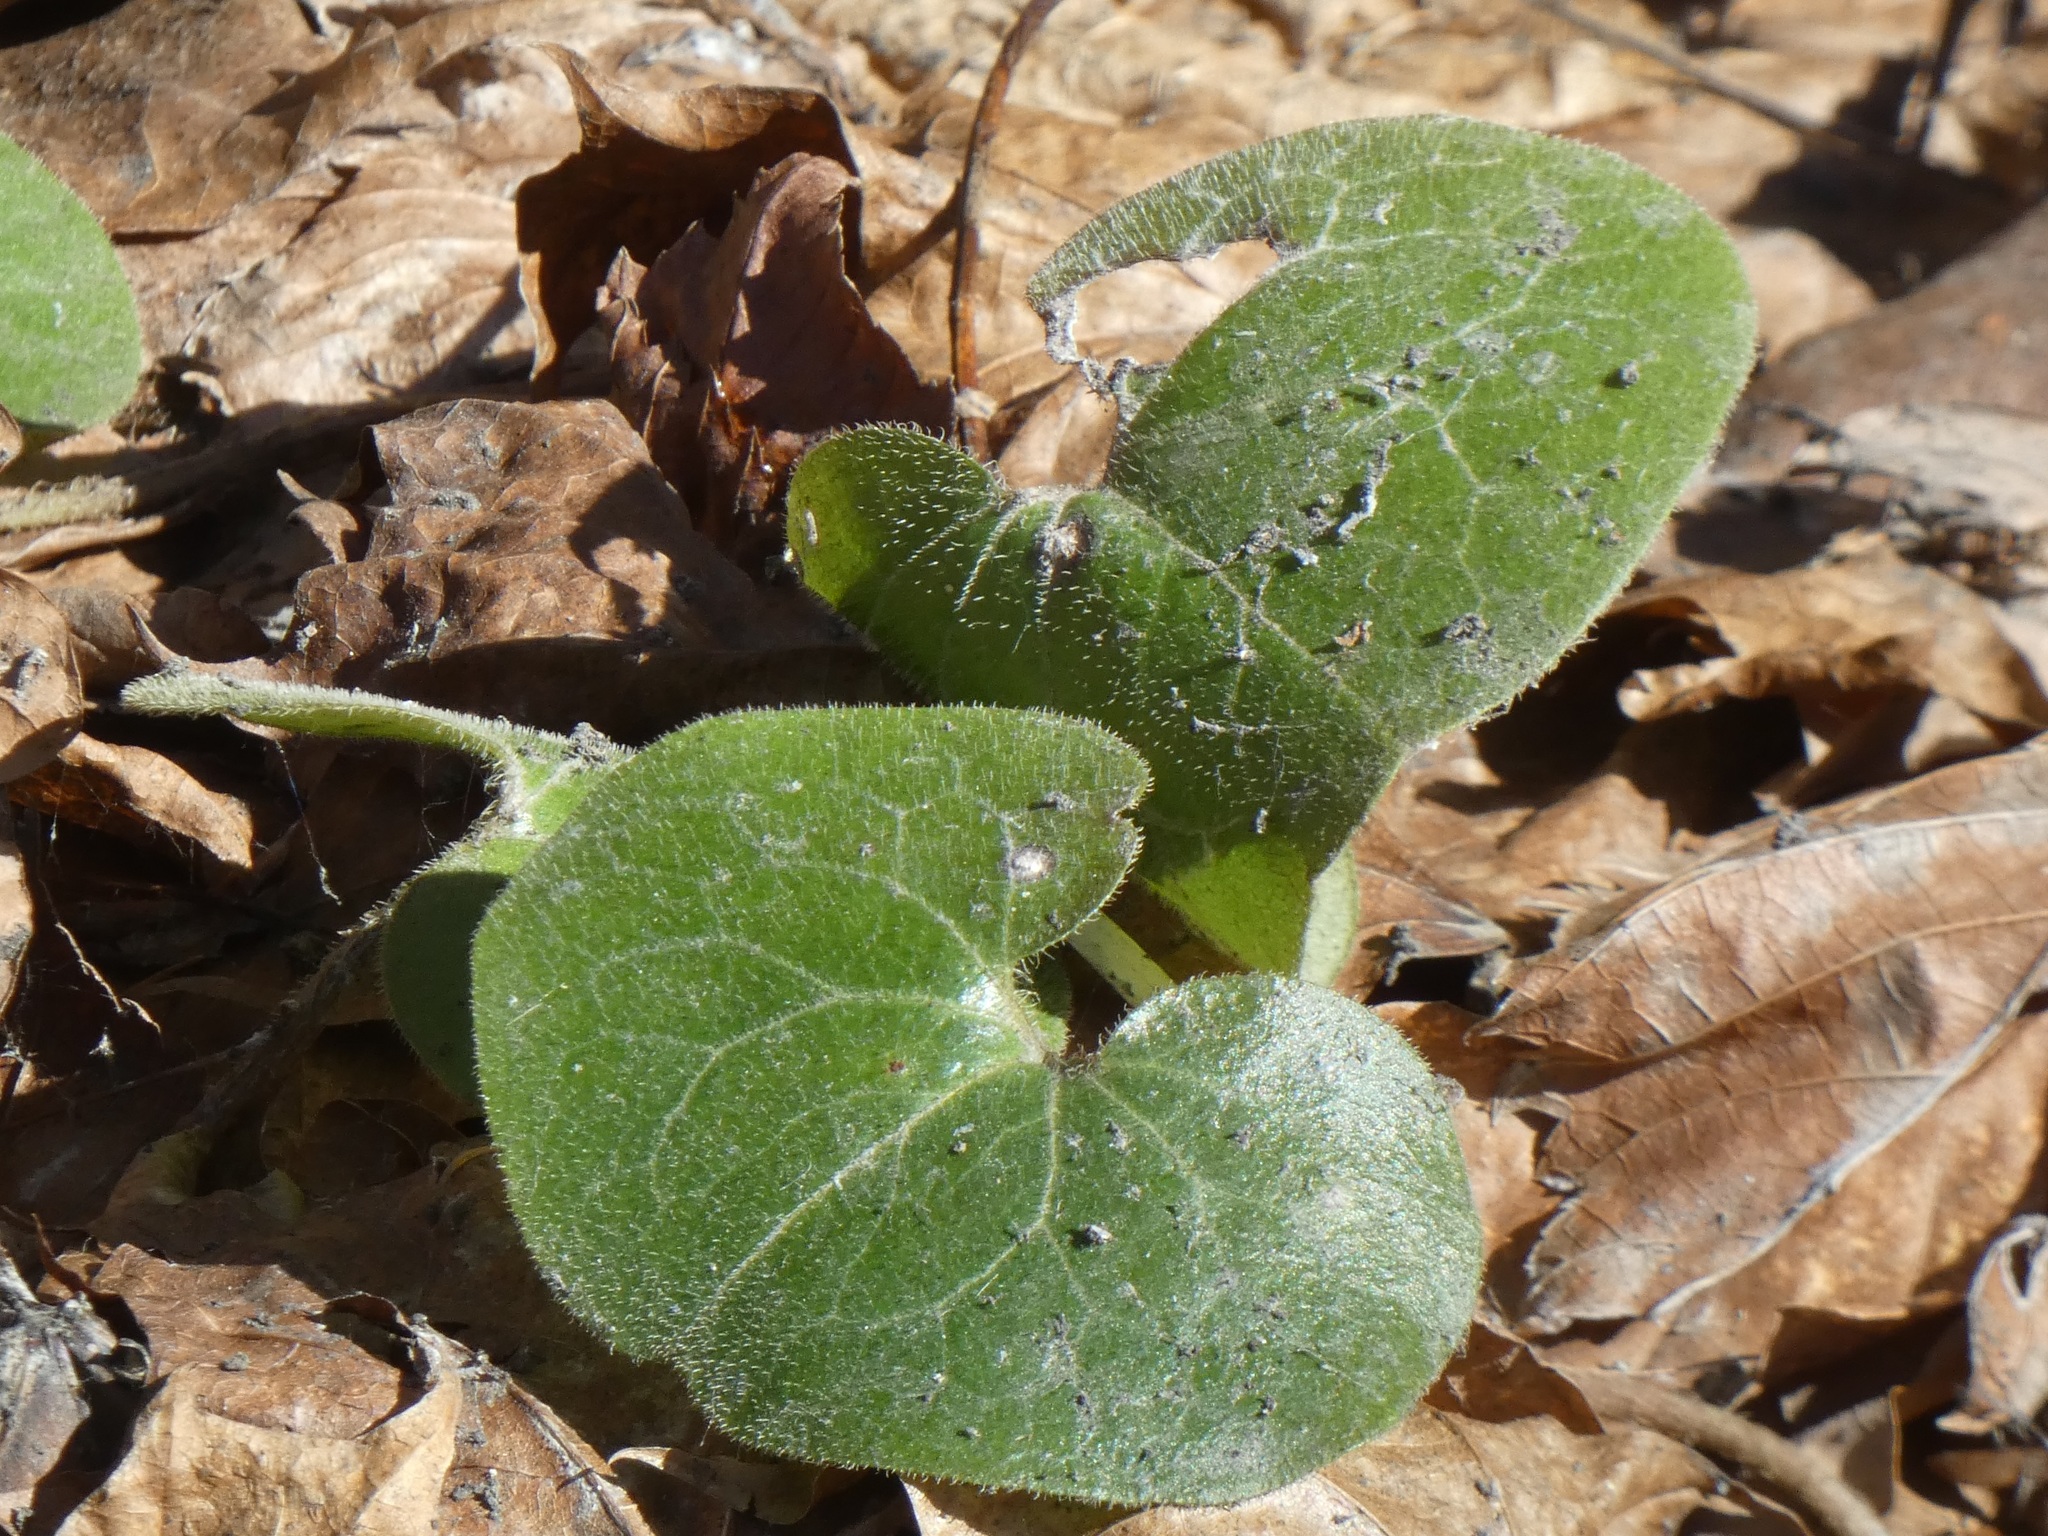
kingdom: Plantae
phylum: Tracheophyta
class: Magnoliopsida
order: Piperales
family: Aristolochiaceae
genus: Asarum
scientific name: Asarum europaeum
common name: Asarabacca
